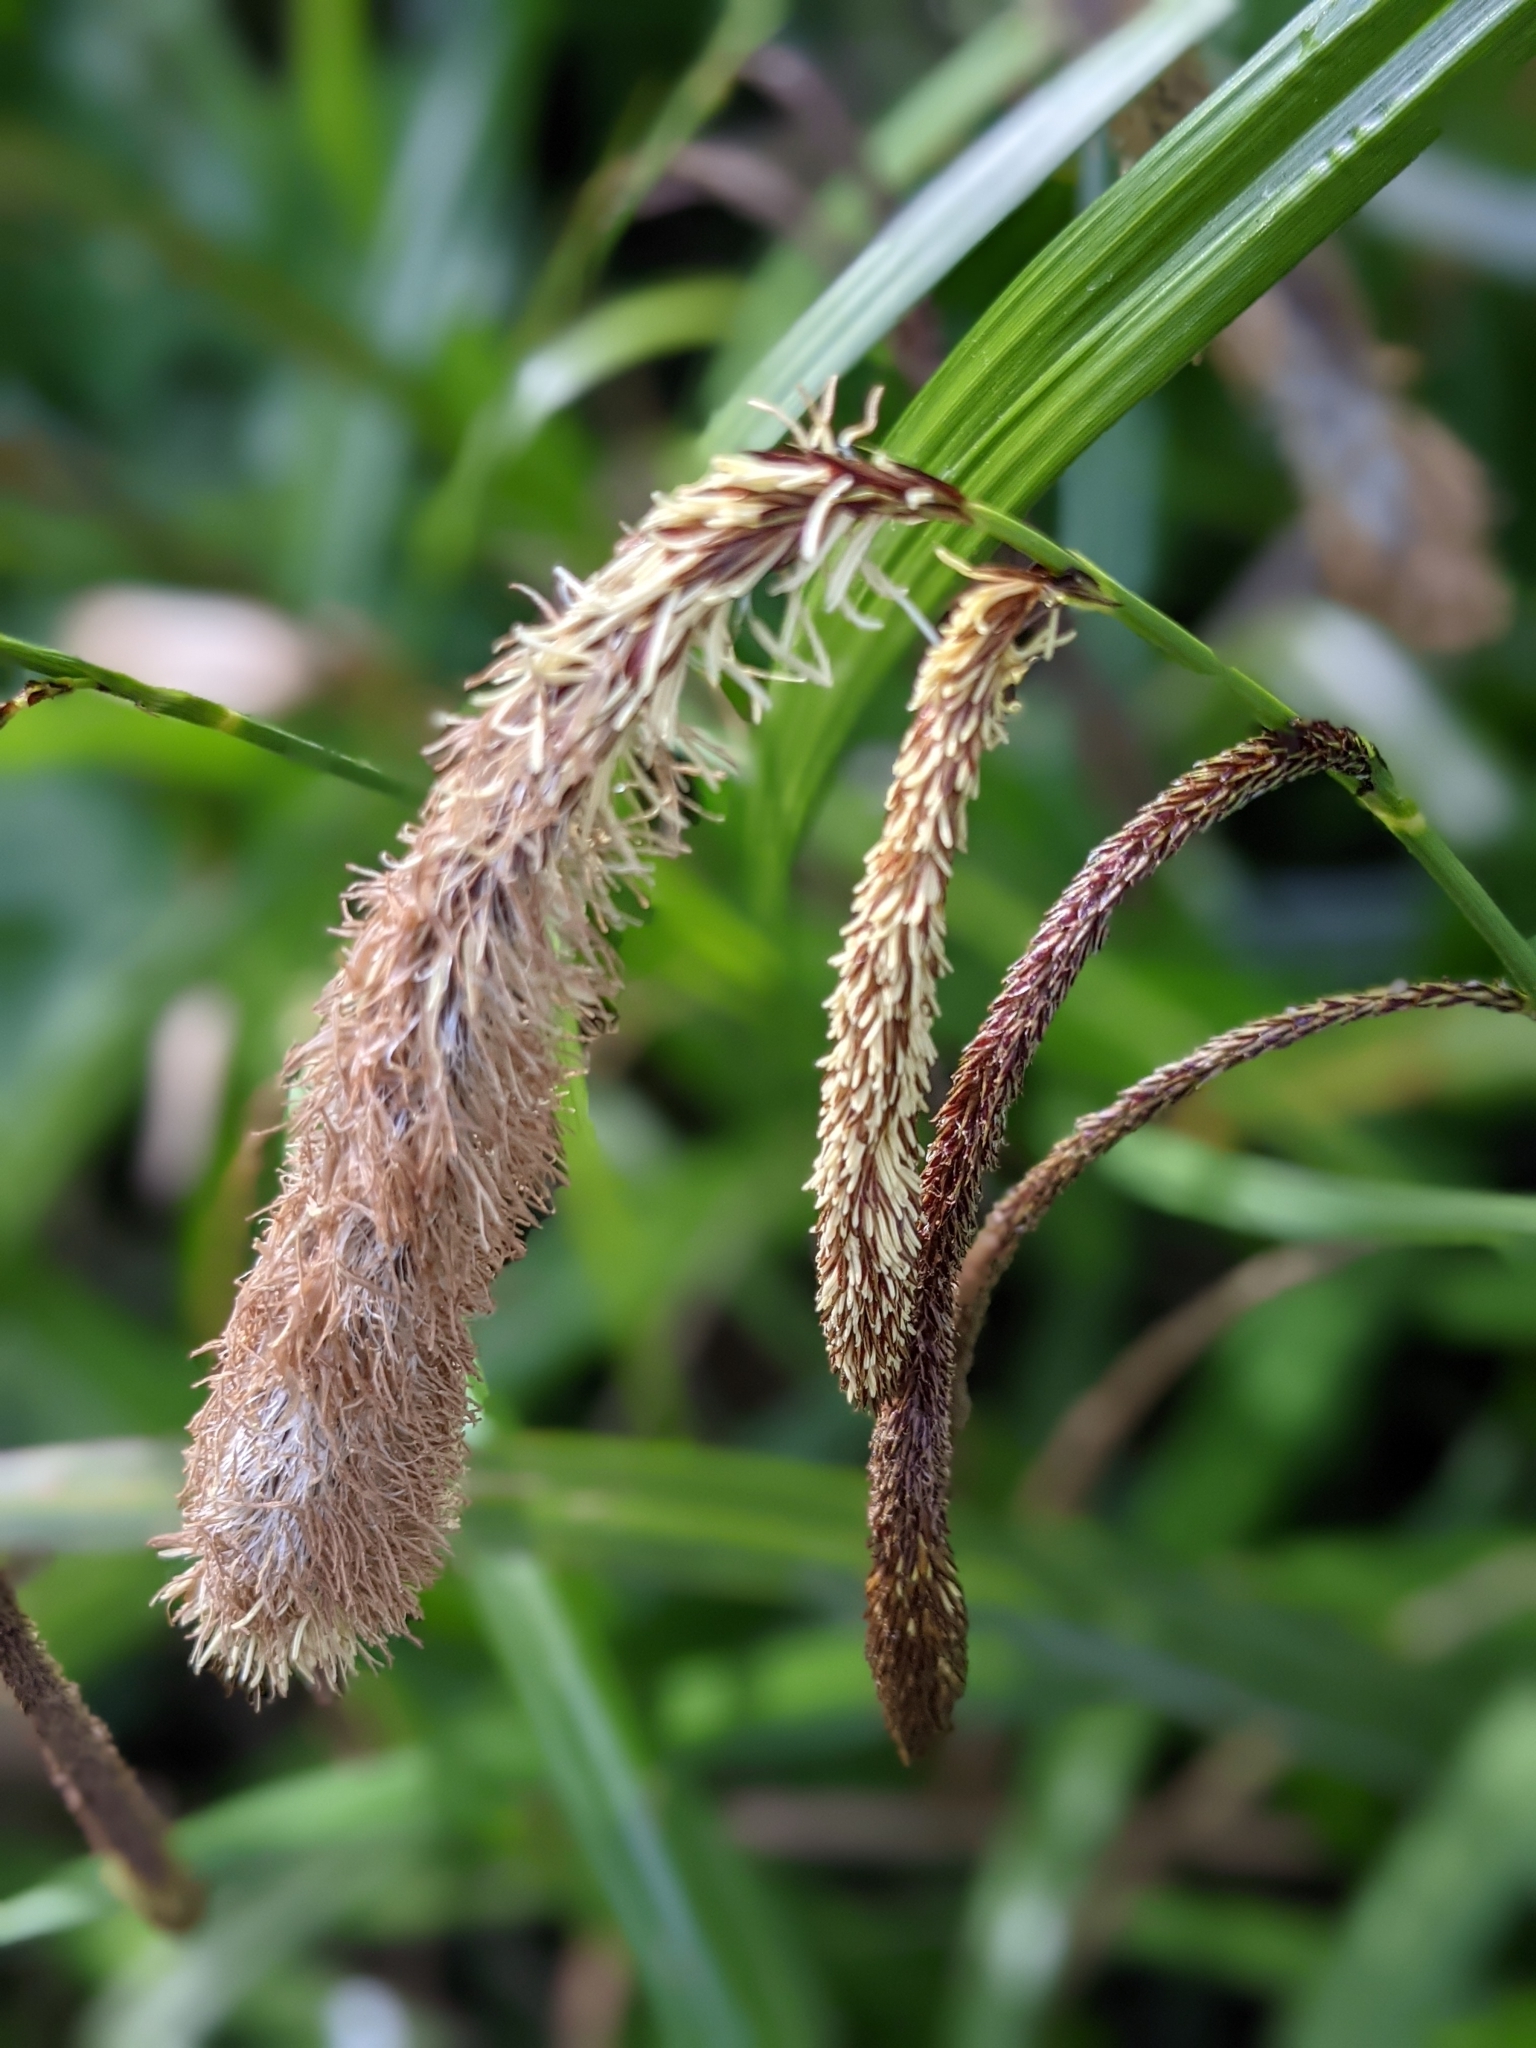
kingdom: Plantae
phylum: Tracheophyta
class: Liliopsida
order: Poales
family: Cyperaceae
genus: Carex
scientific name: Carex pendula
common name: Pendulous sedge
